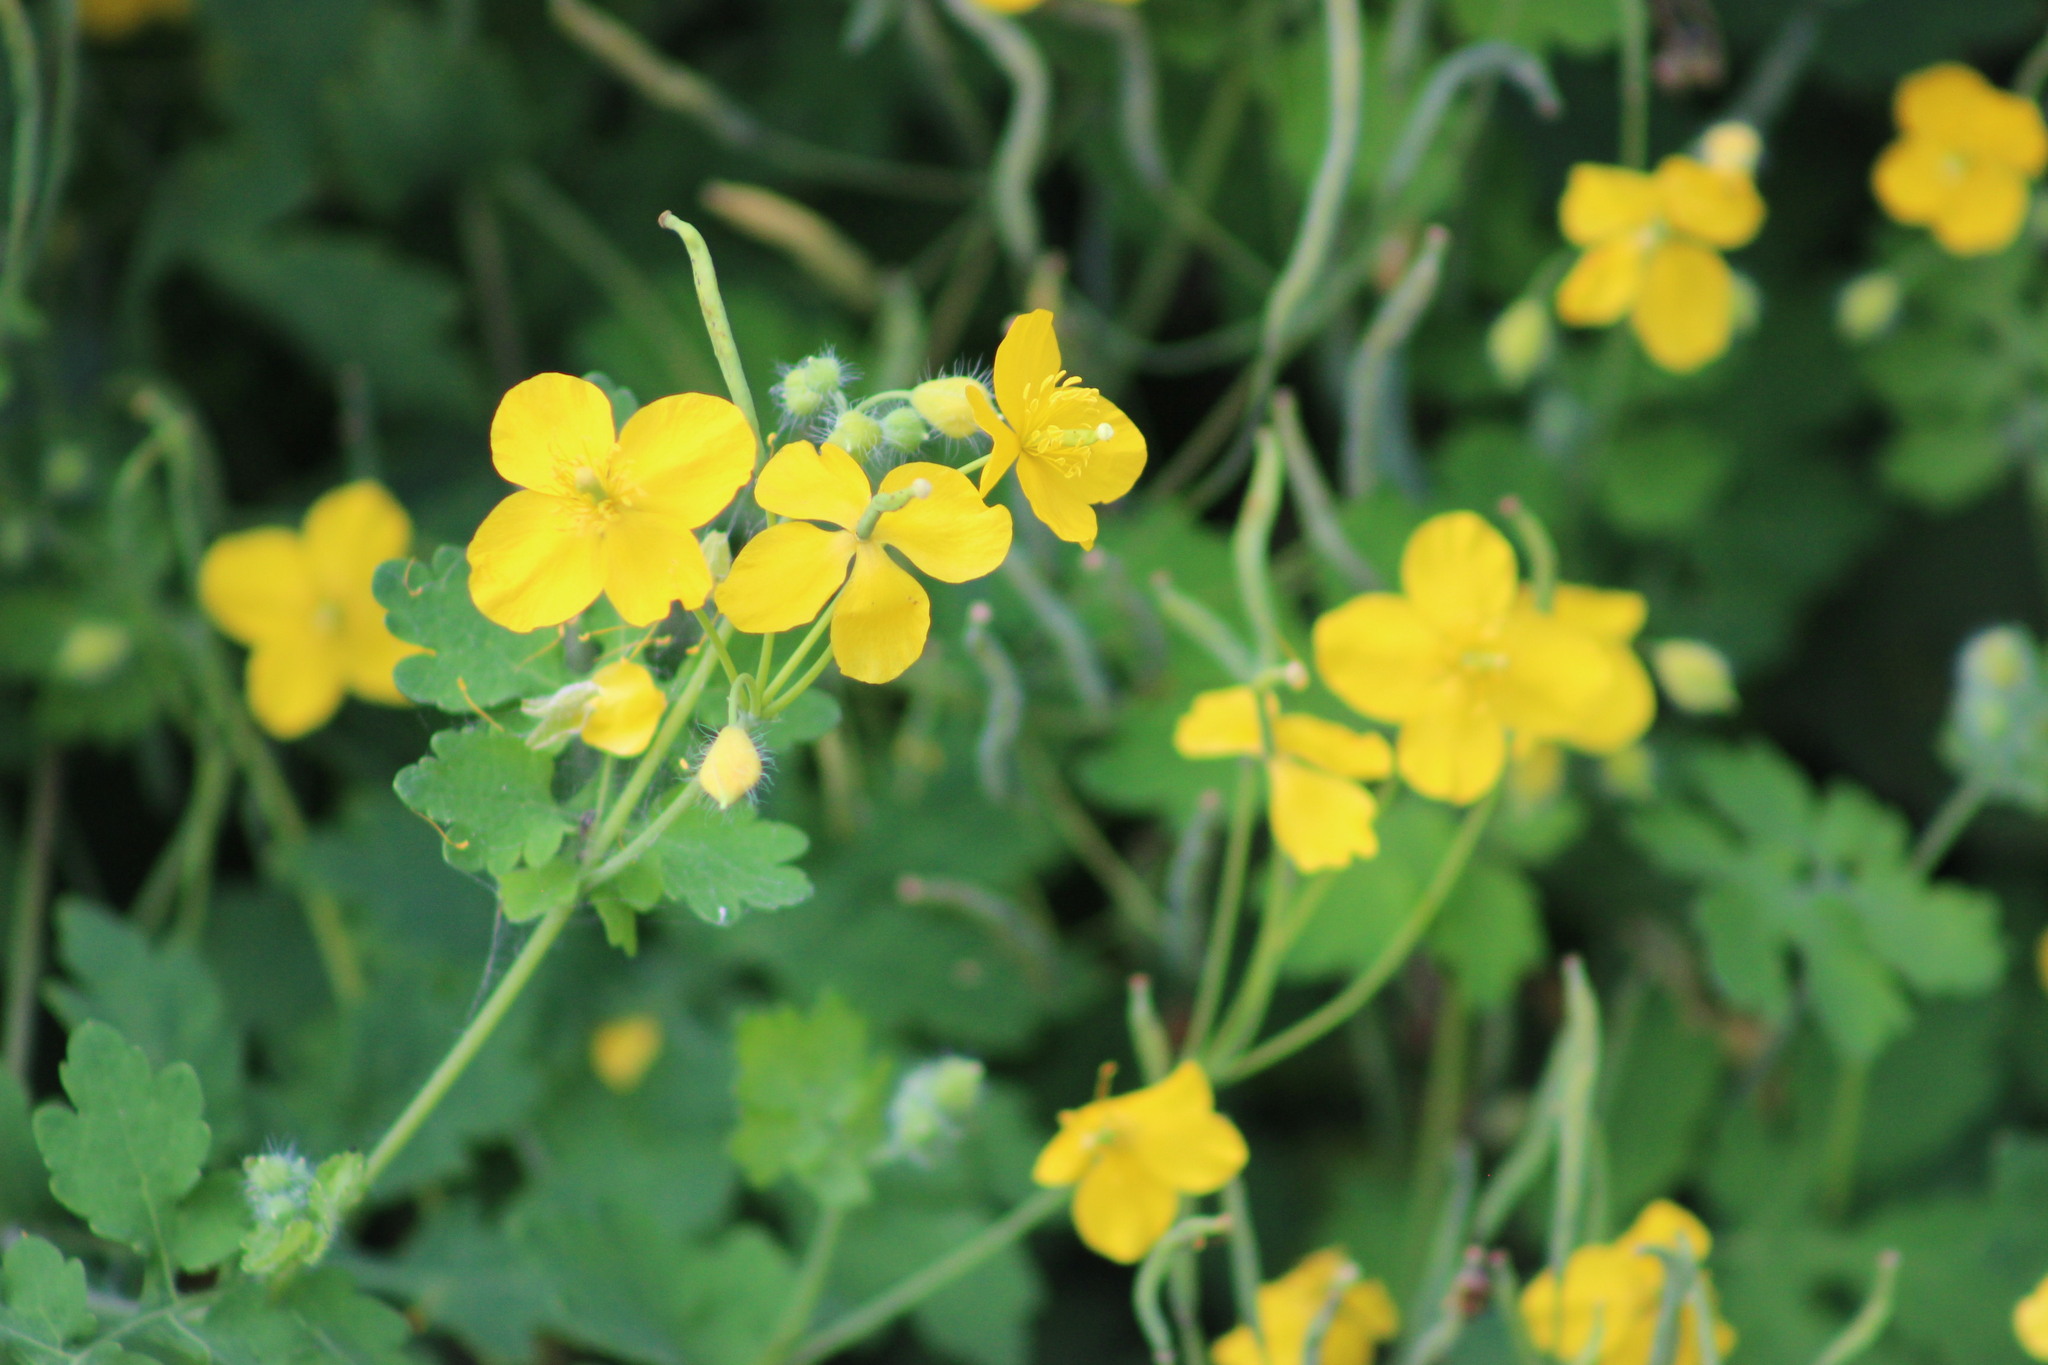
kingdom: Plantae
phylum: Tracheophyta
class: Magnoliopsida
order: Ranunculales
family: Papaveraceae
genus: Chelidonium
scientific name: Chelidonium majus
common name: Greater celandine
